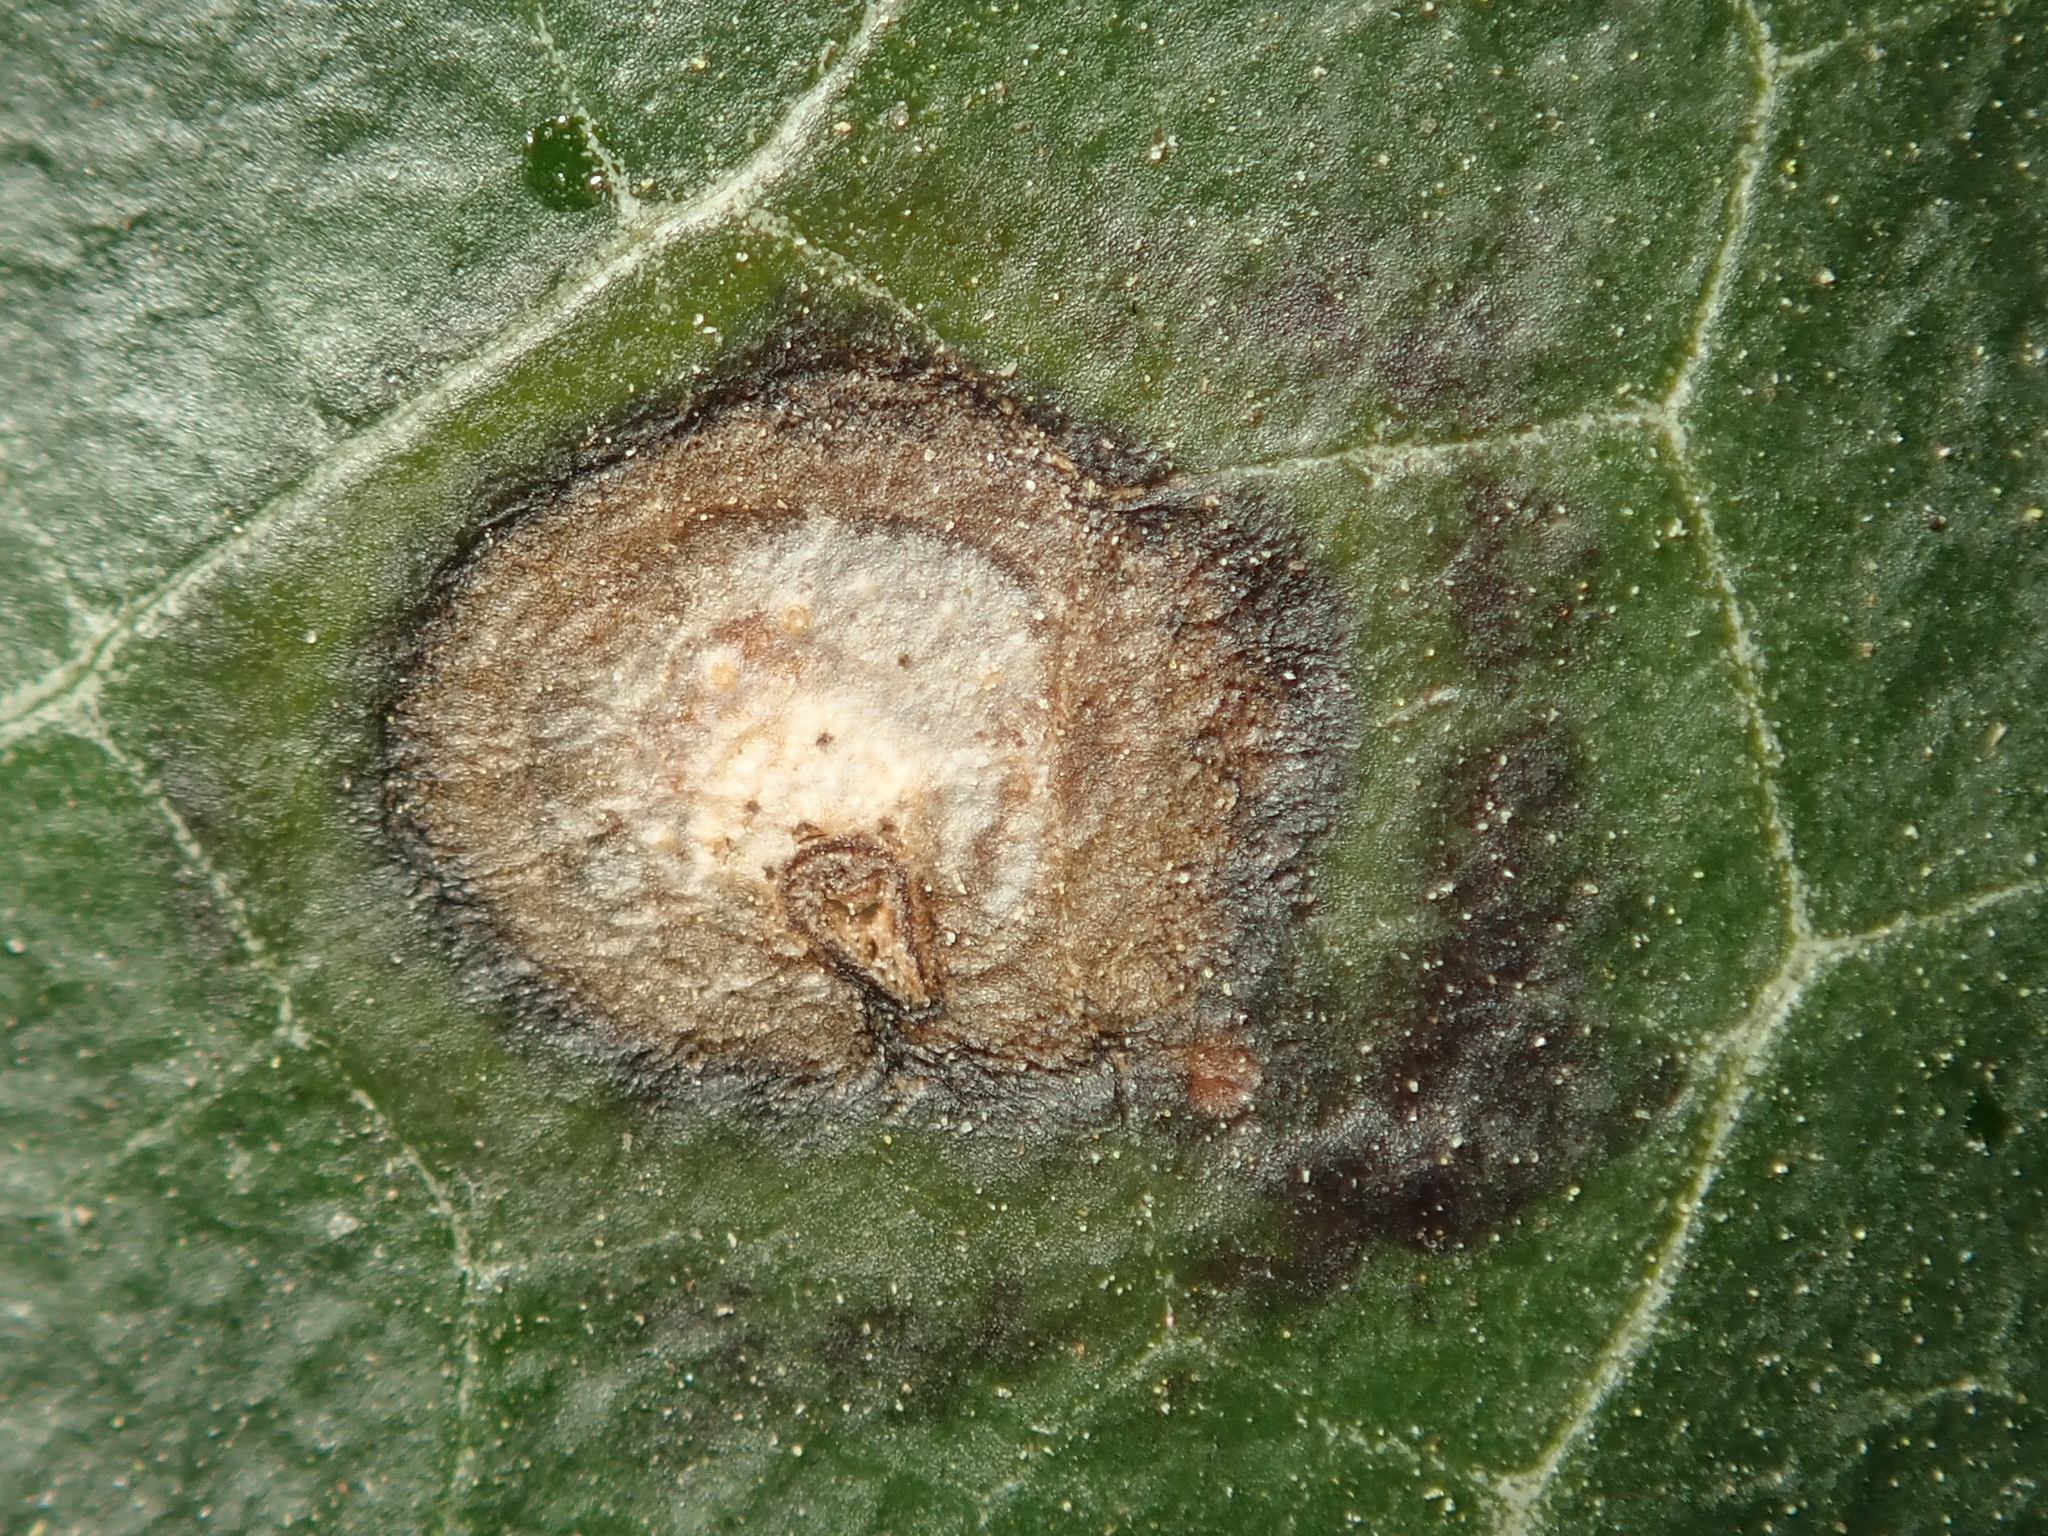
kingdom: Fungi
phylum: Ascomycota
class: Dothideomycetes
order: Pleosporales
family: Didymellaceae
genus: Boeremia
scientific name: Boeremia hedericola
